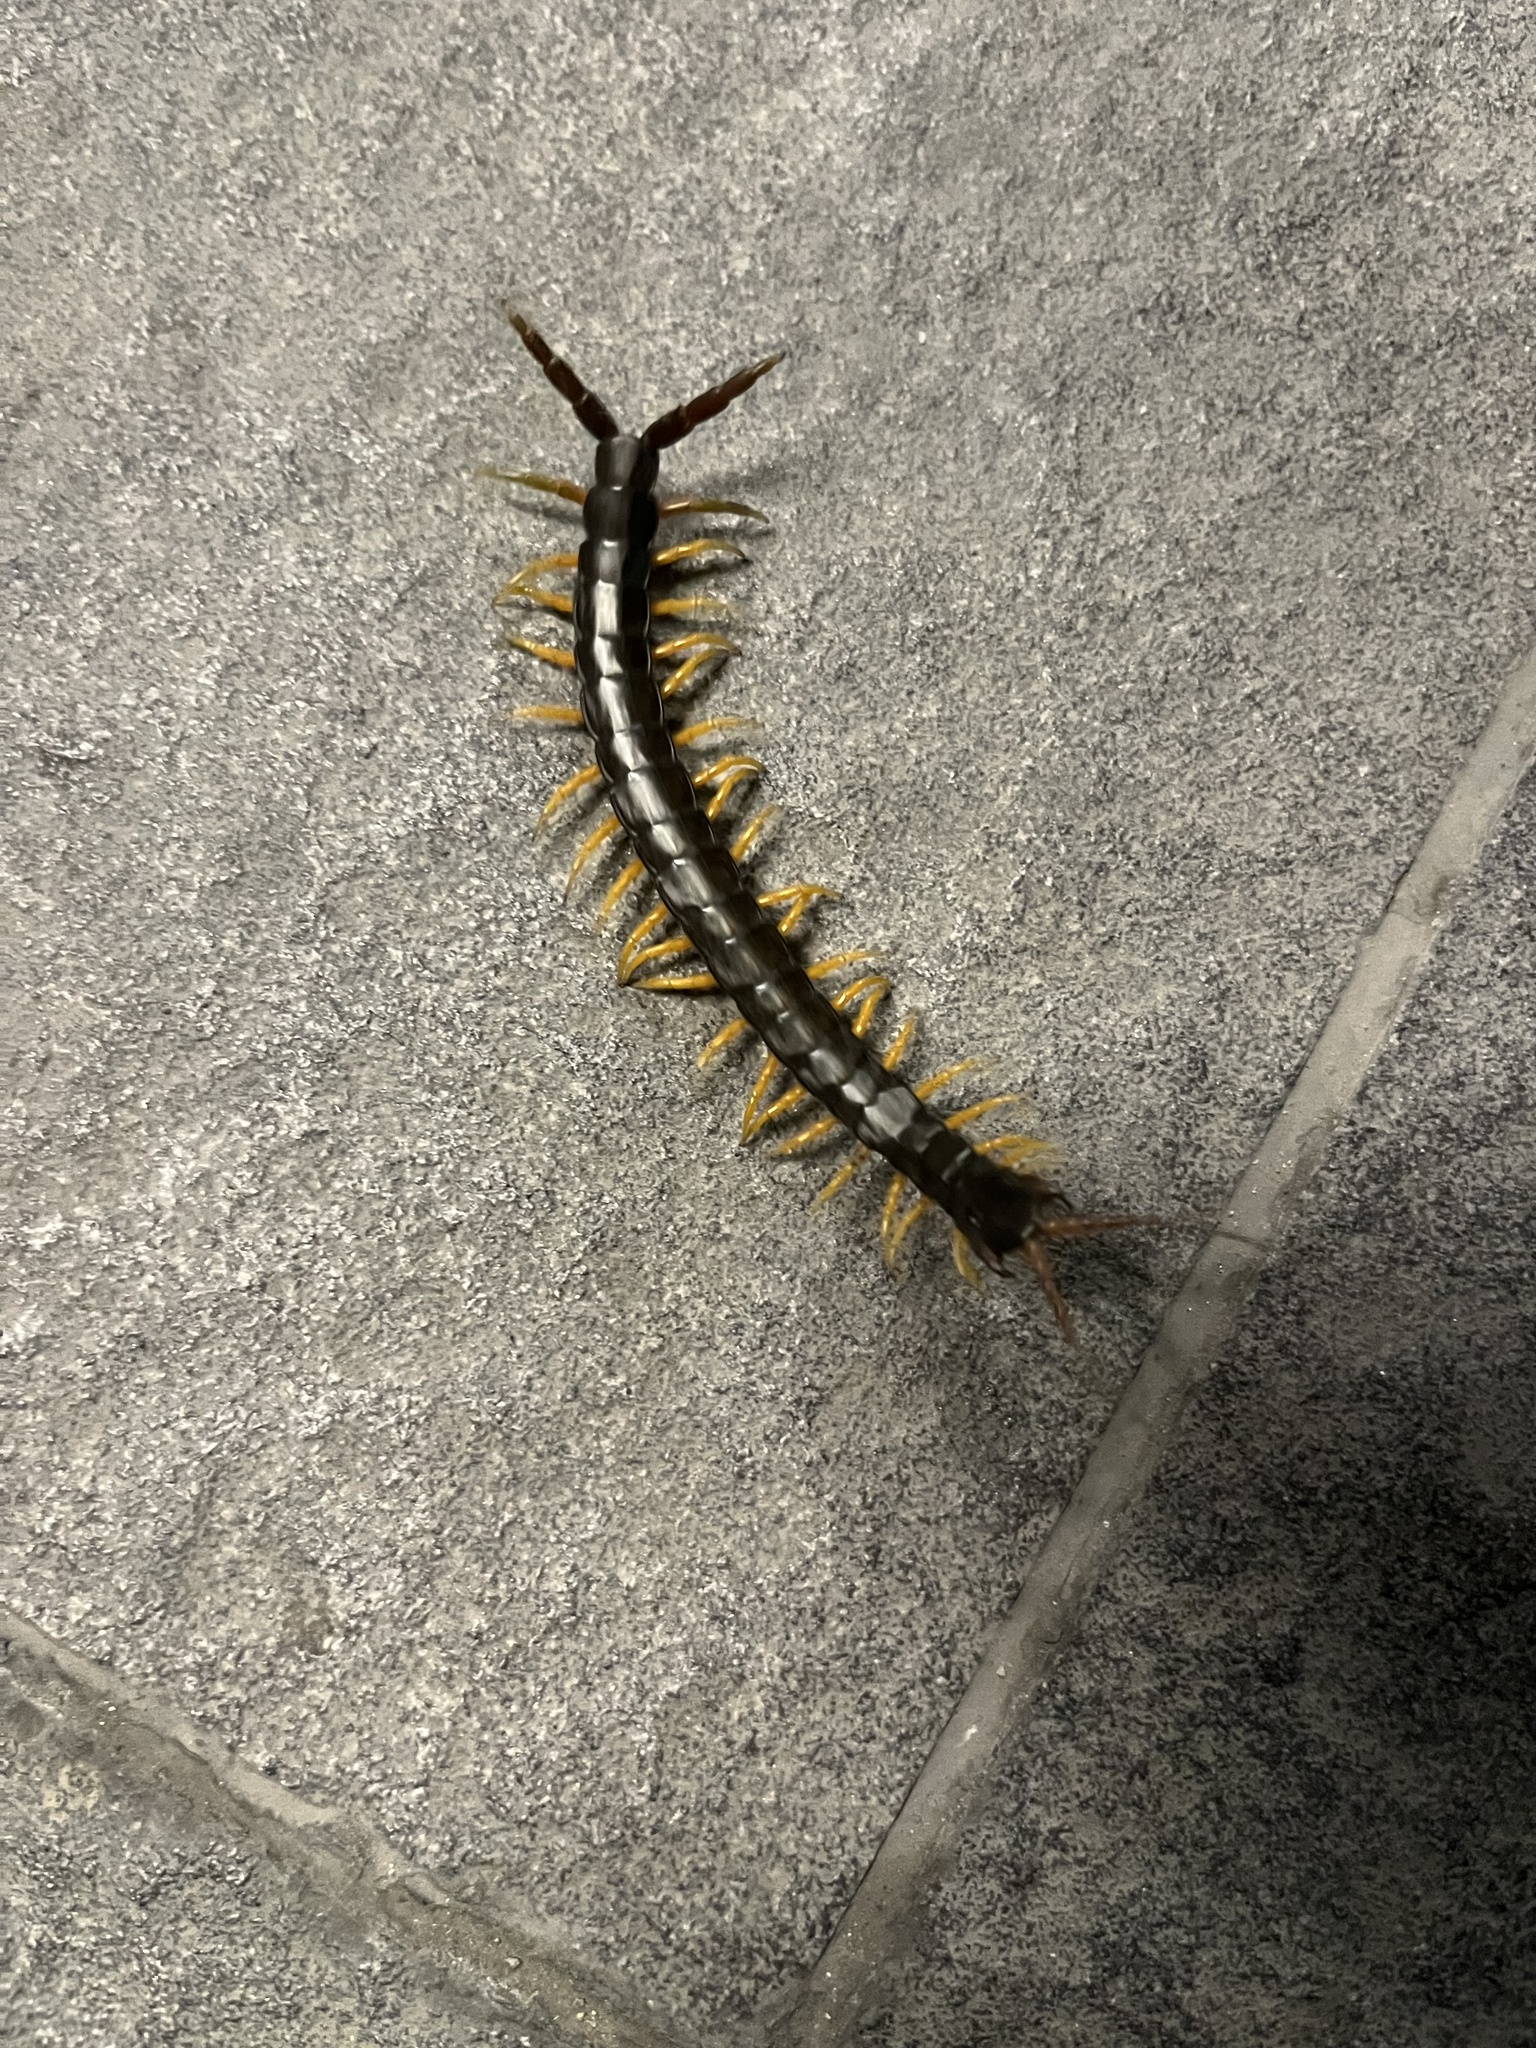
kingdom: Animalia
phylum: Arthropoda
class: Chilopoda
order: Scolopendromorpha
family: Scolopendridae
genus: Scolopendra
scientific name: Scolopendra cingulata
